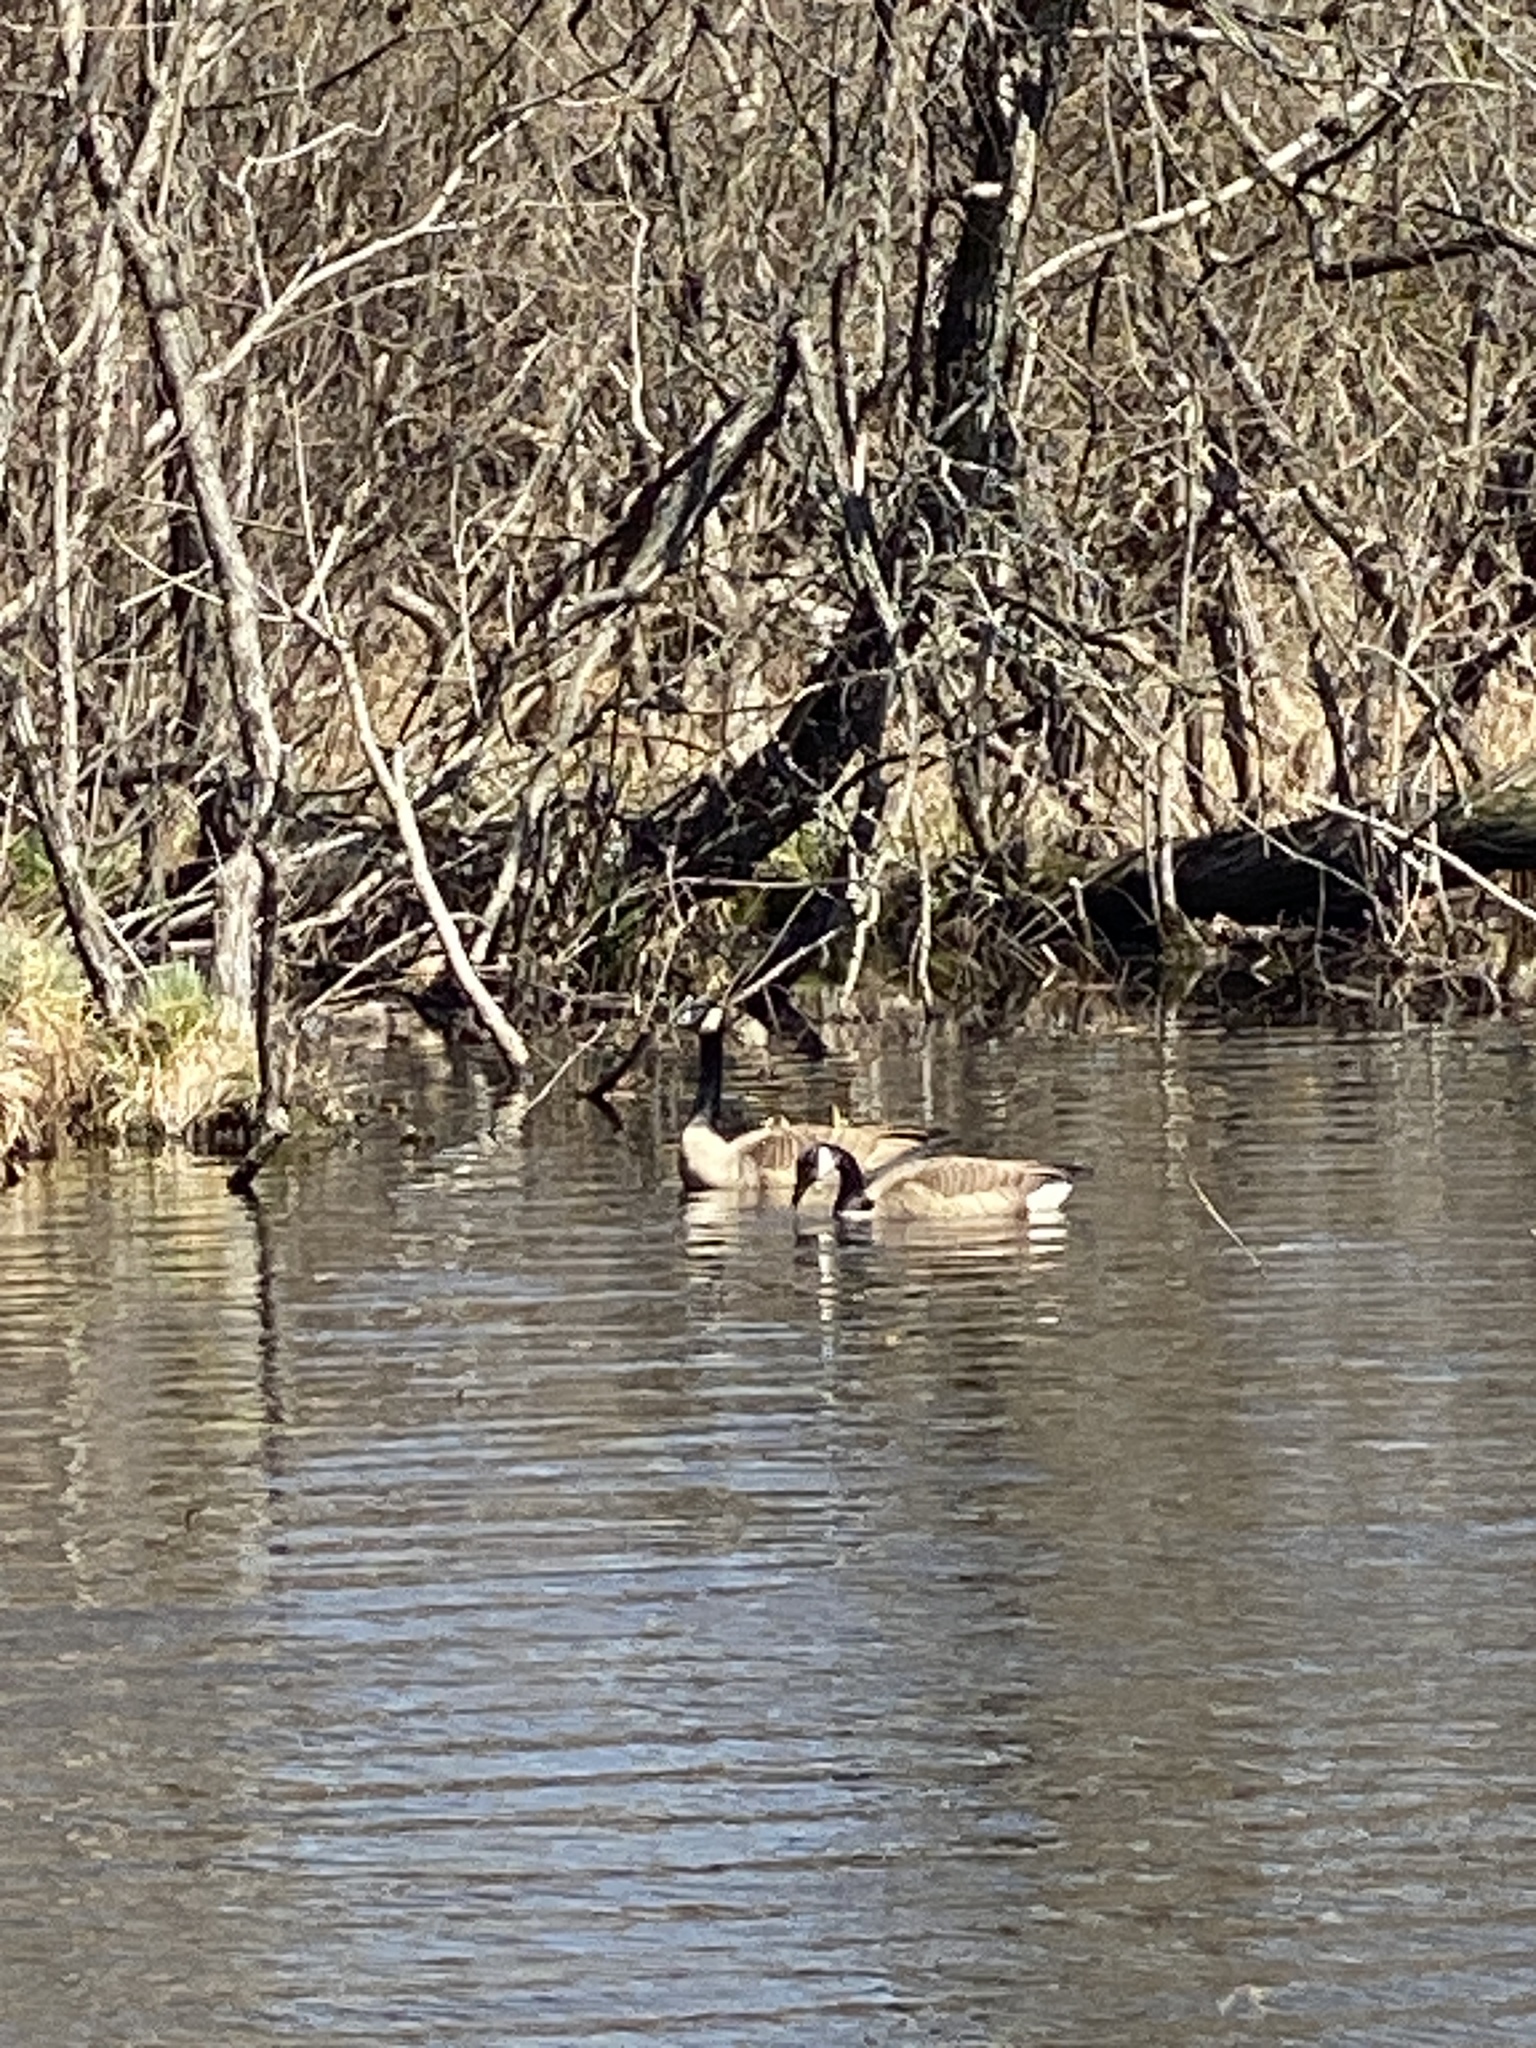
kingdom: Animalia
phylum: Chordata
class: Aves
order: Anseriformes
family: Anatidae
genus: Branta
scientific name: Branta canadensis
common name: Canada goose
